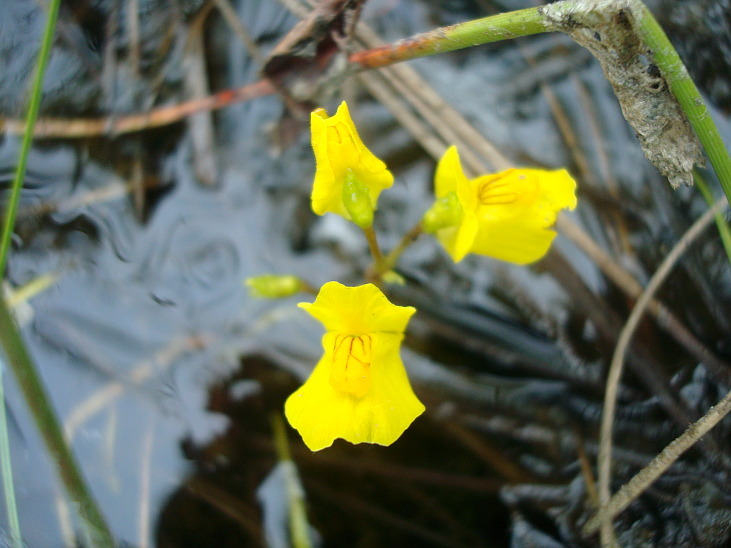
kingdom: Plantae
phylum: Tracheophyta
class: Magnoliopsida
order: Lamiales
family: Lentibulariaceae
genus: Utricularia
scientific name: Utricularia macrorhiza
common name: Common bladderwort
